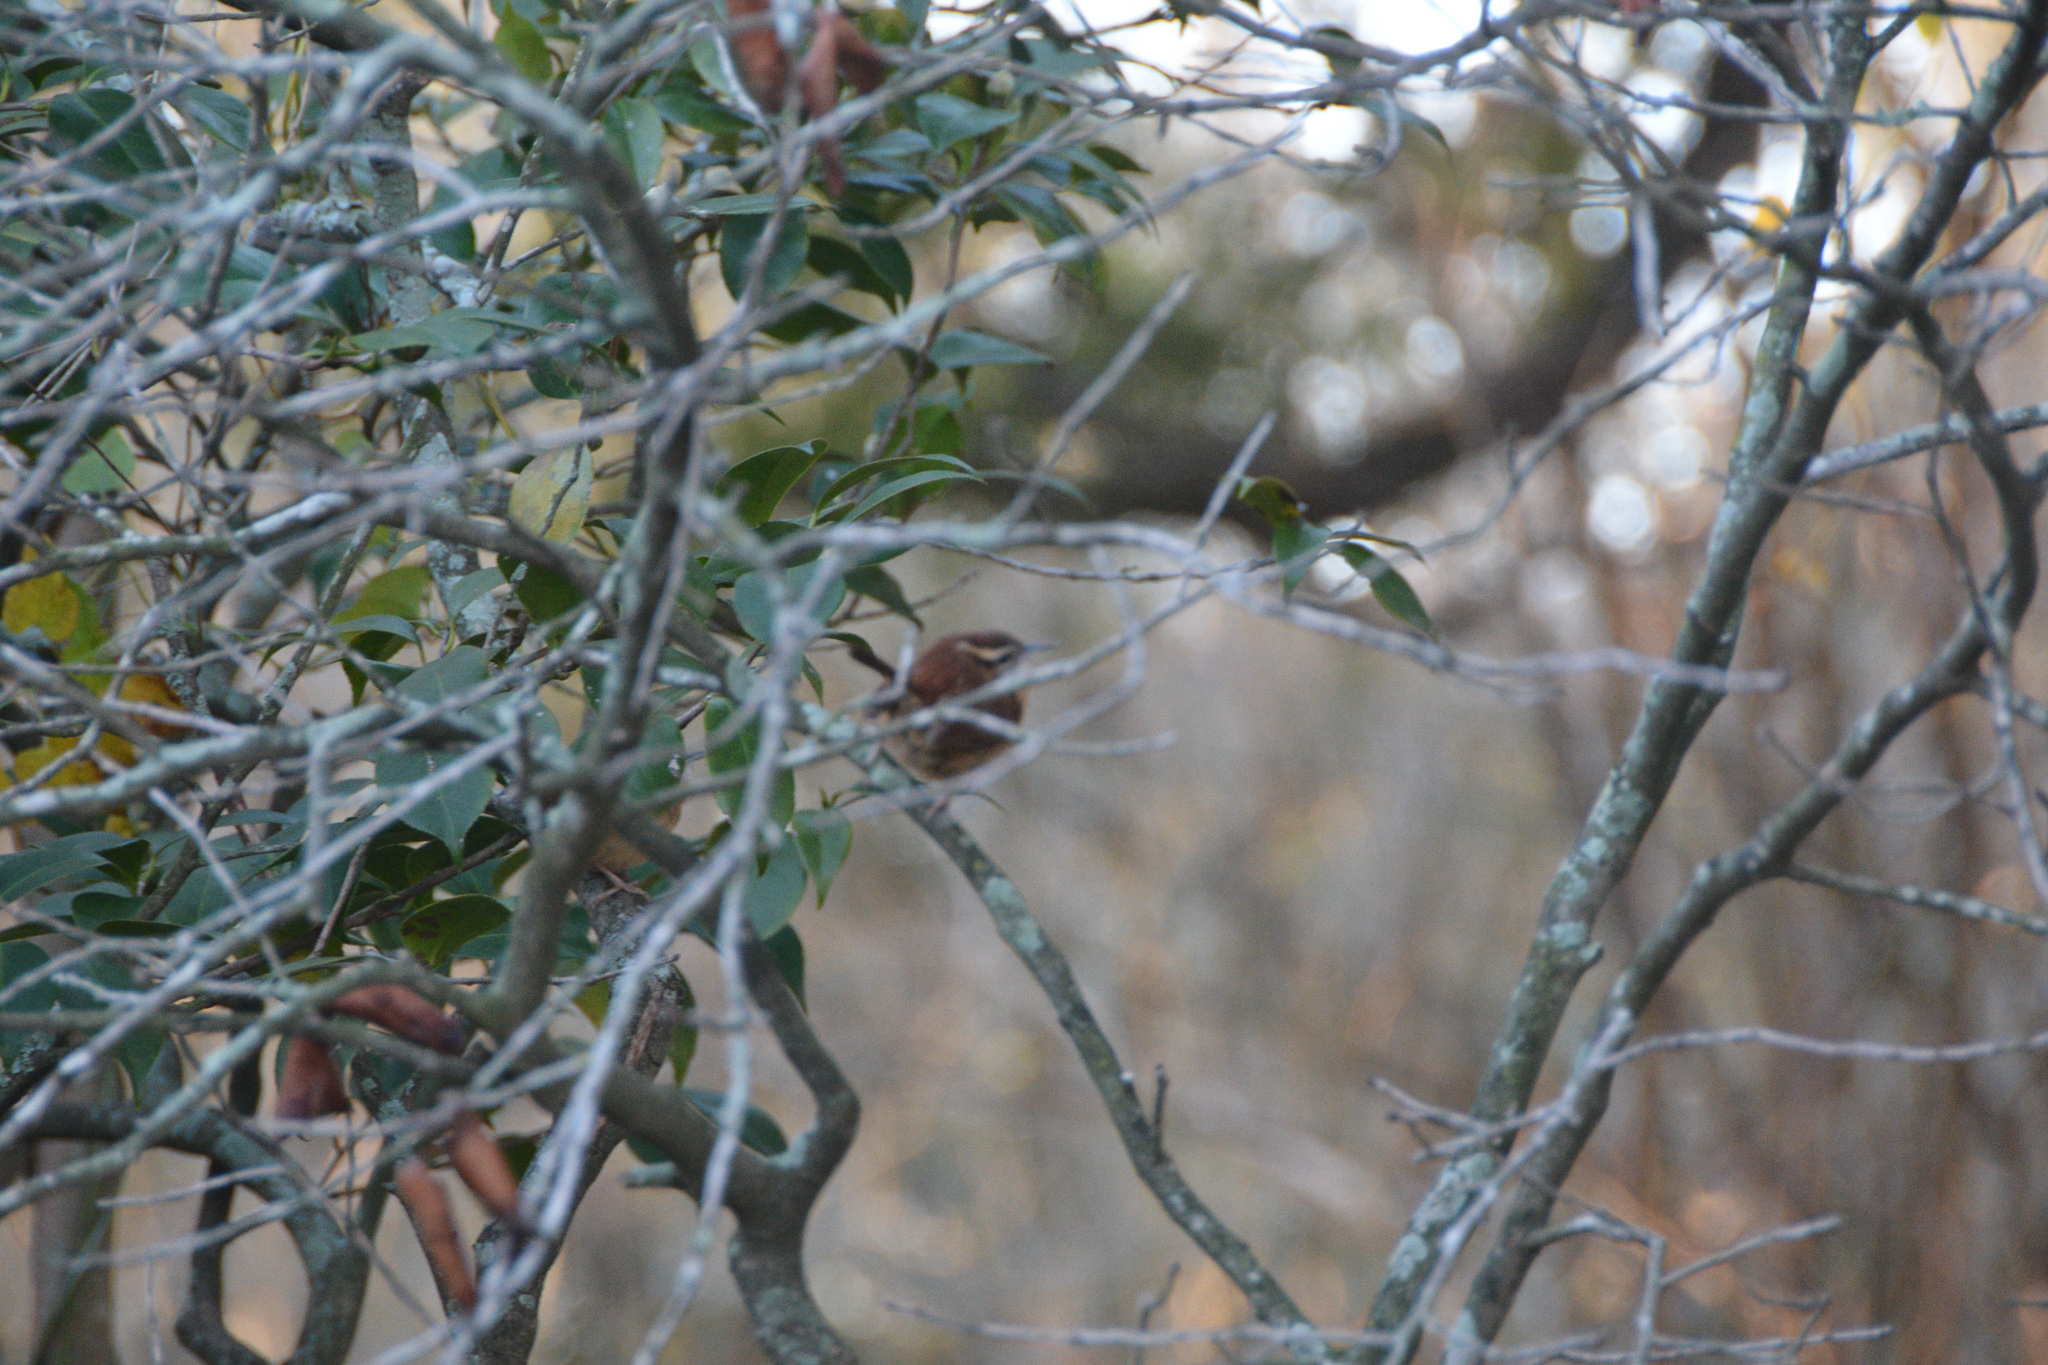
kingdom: Animalia
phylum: Chordata
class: Aves
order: Passeriformes
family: Troglodytidae
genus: Thryothorus
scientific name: Thryothorus ludovicianus
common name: Carolina wren
